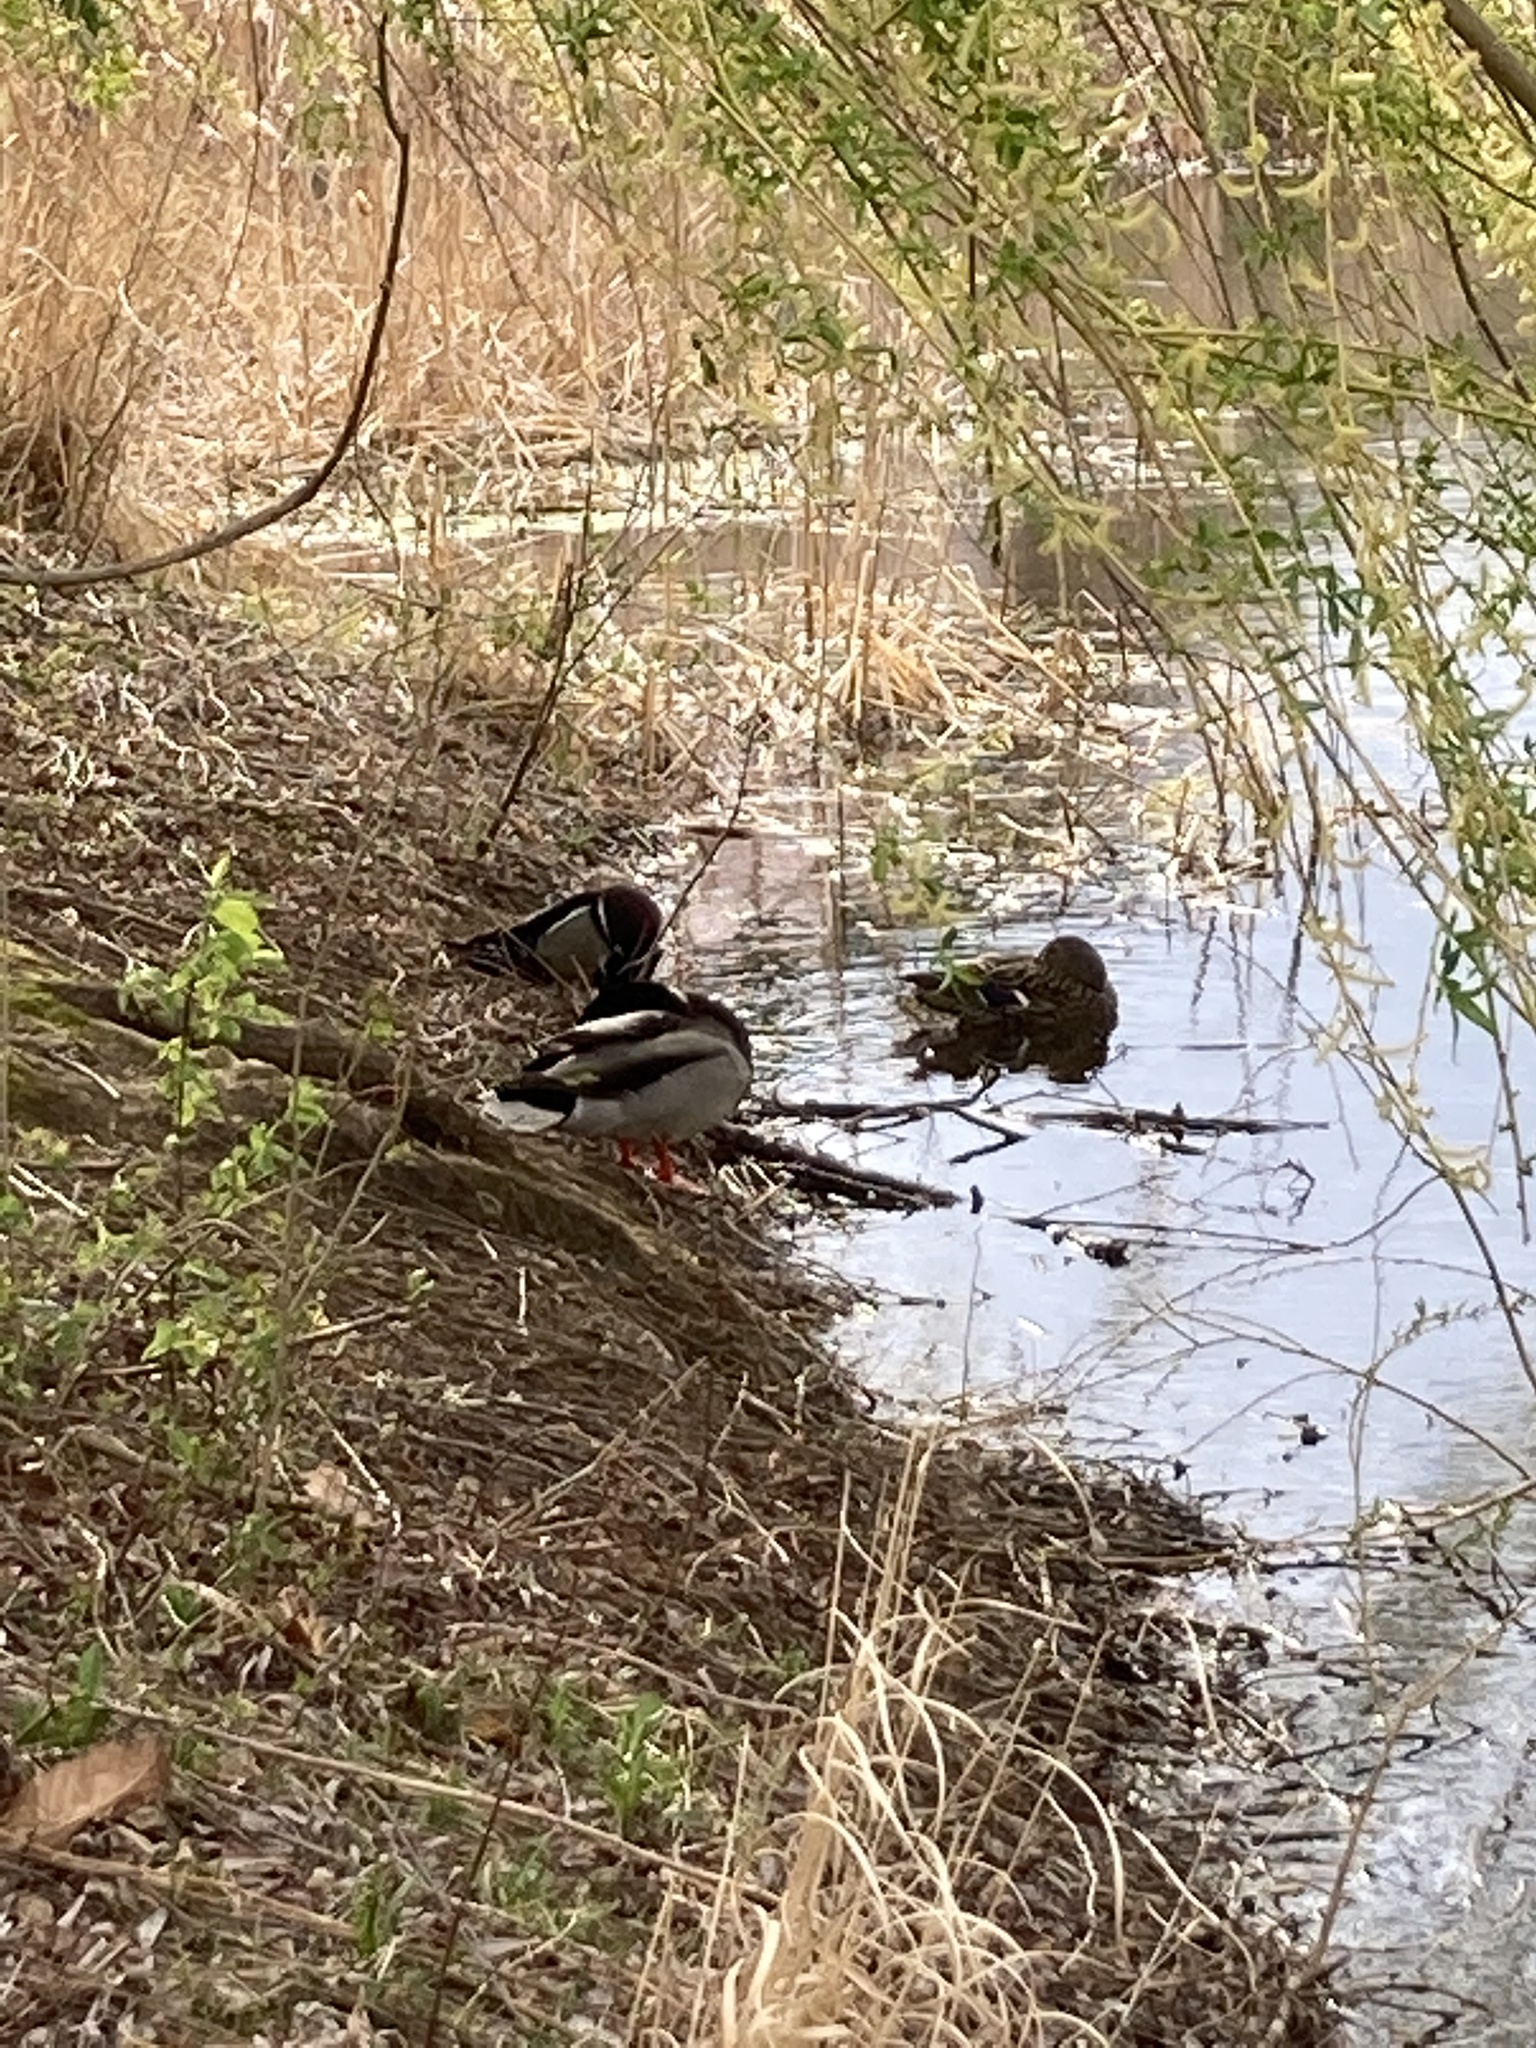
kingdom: Animalia
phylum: Chordata
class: Aves
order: Anseriformes
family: Anatidae
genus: Anas
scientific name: Anas platyrhynchos
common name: Mallard
